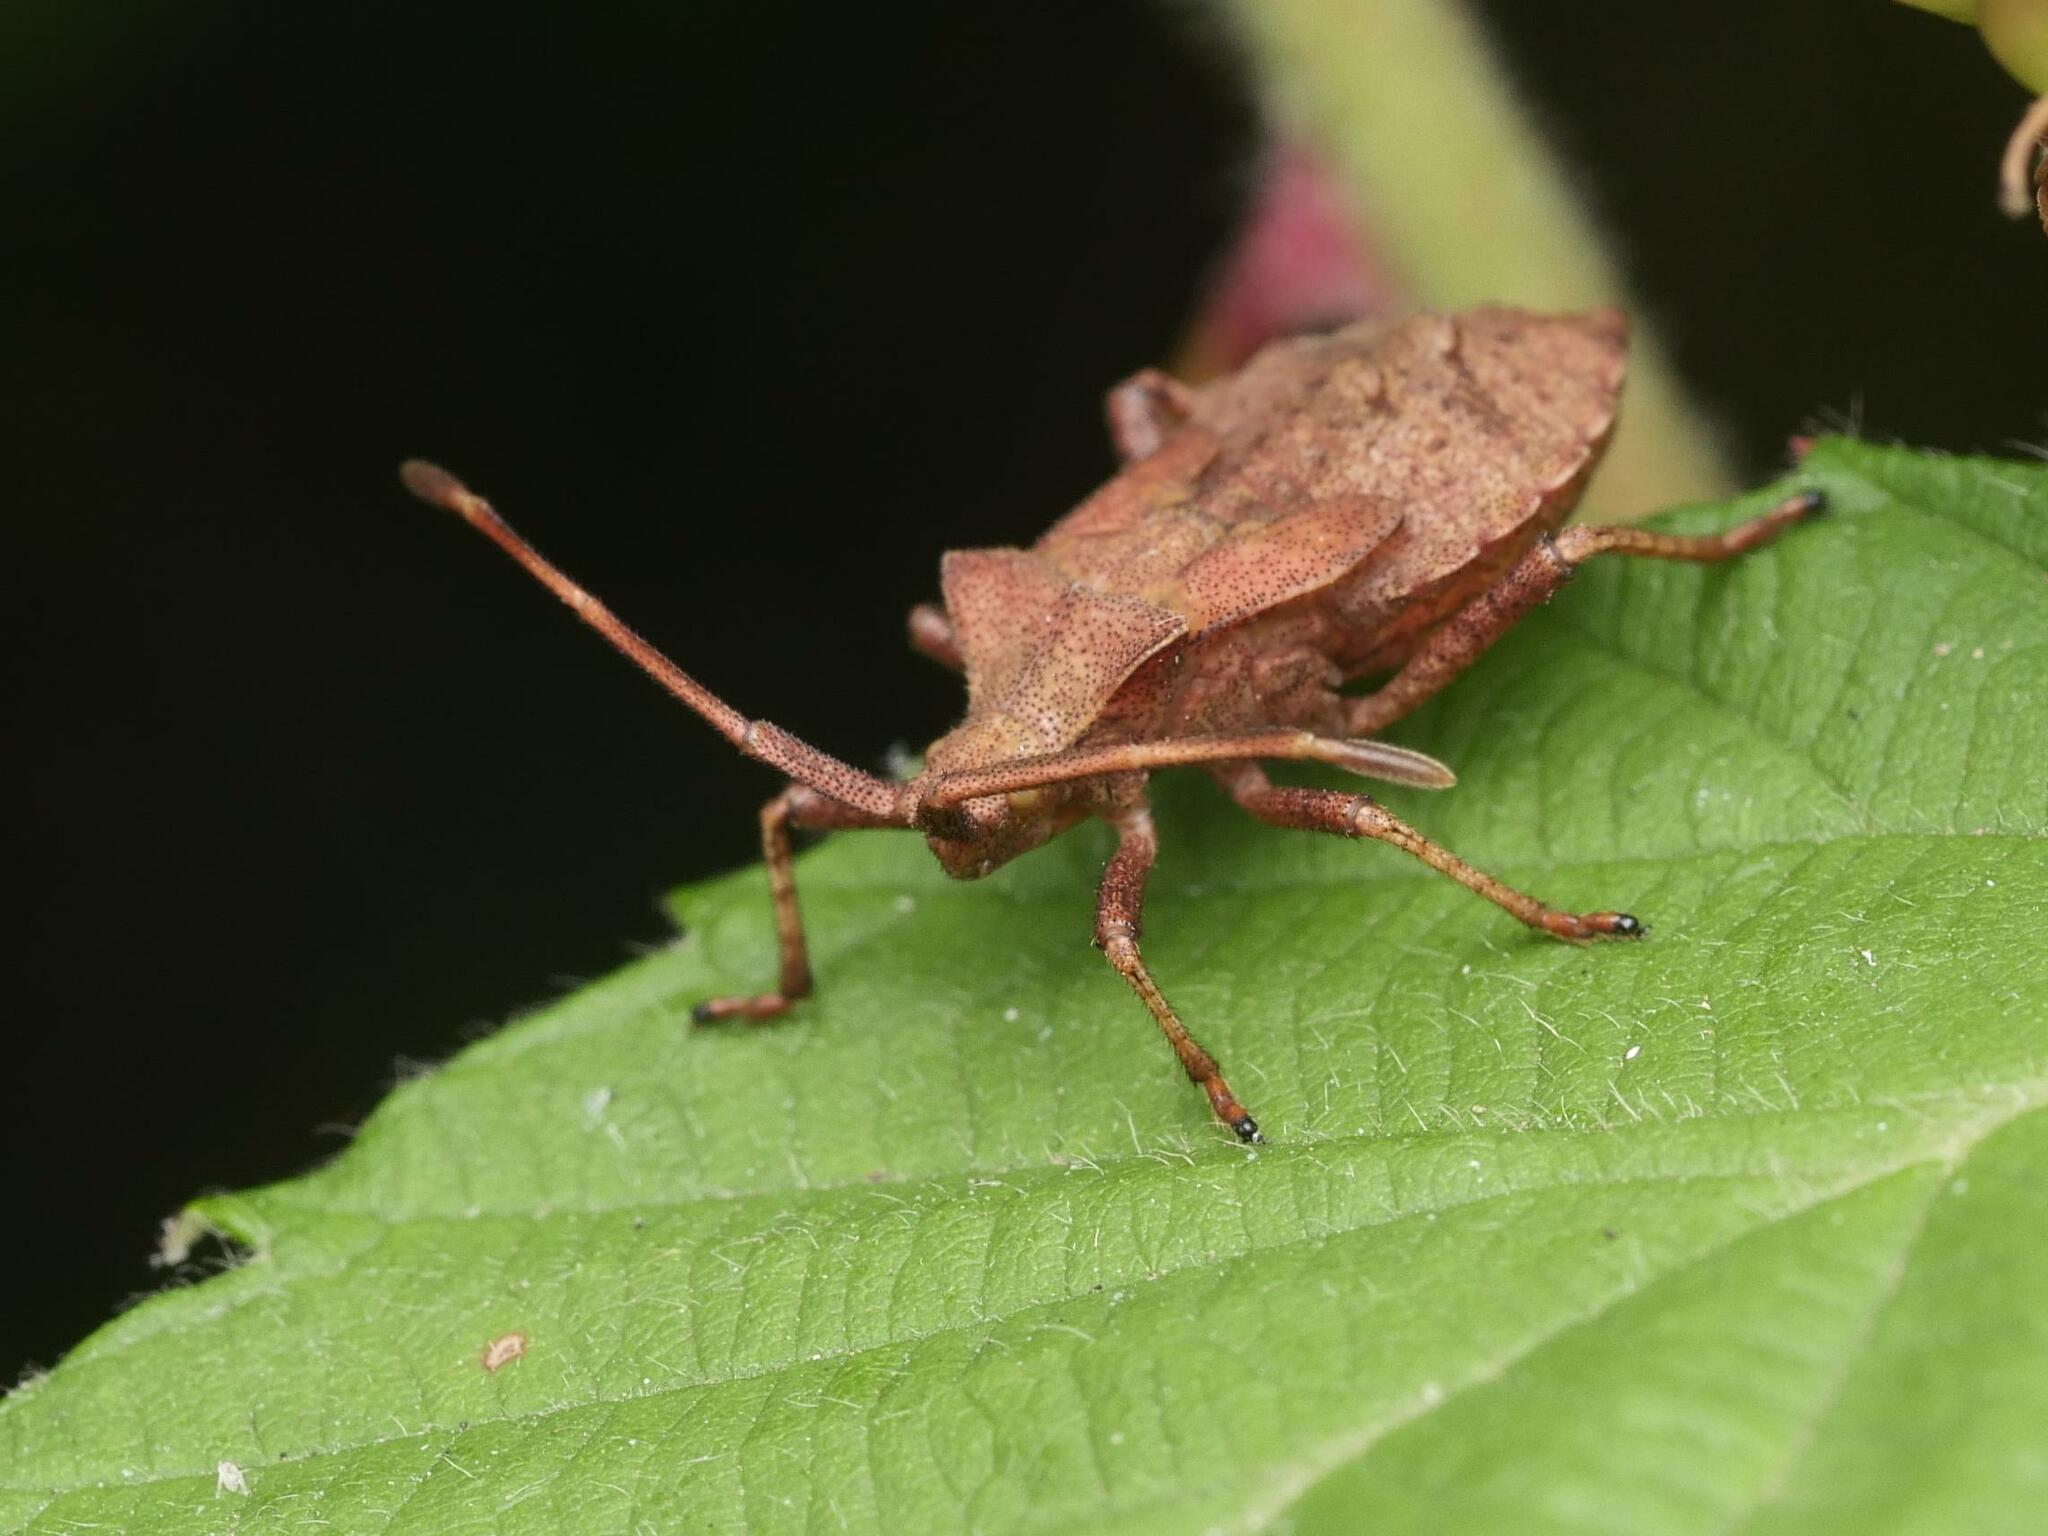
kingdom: Animalia
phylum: Arthropoda
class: Insecta
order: Hemiptera
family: Coreidae
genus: Coreus
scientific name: Coreus marginatus
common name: Dock bug
